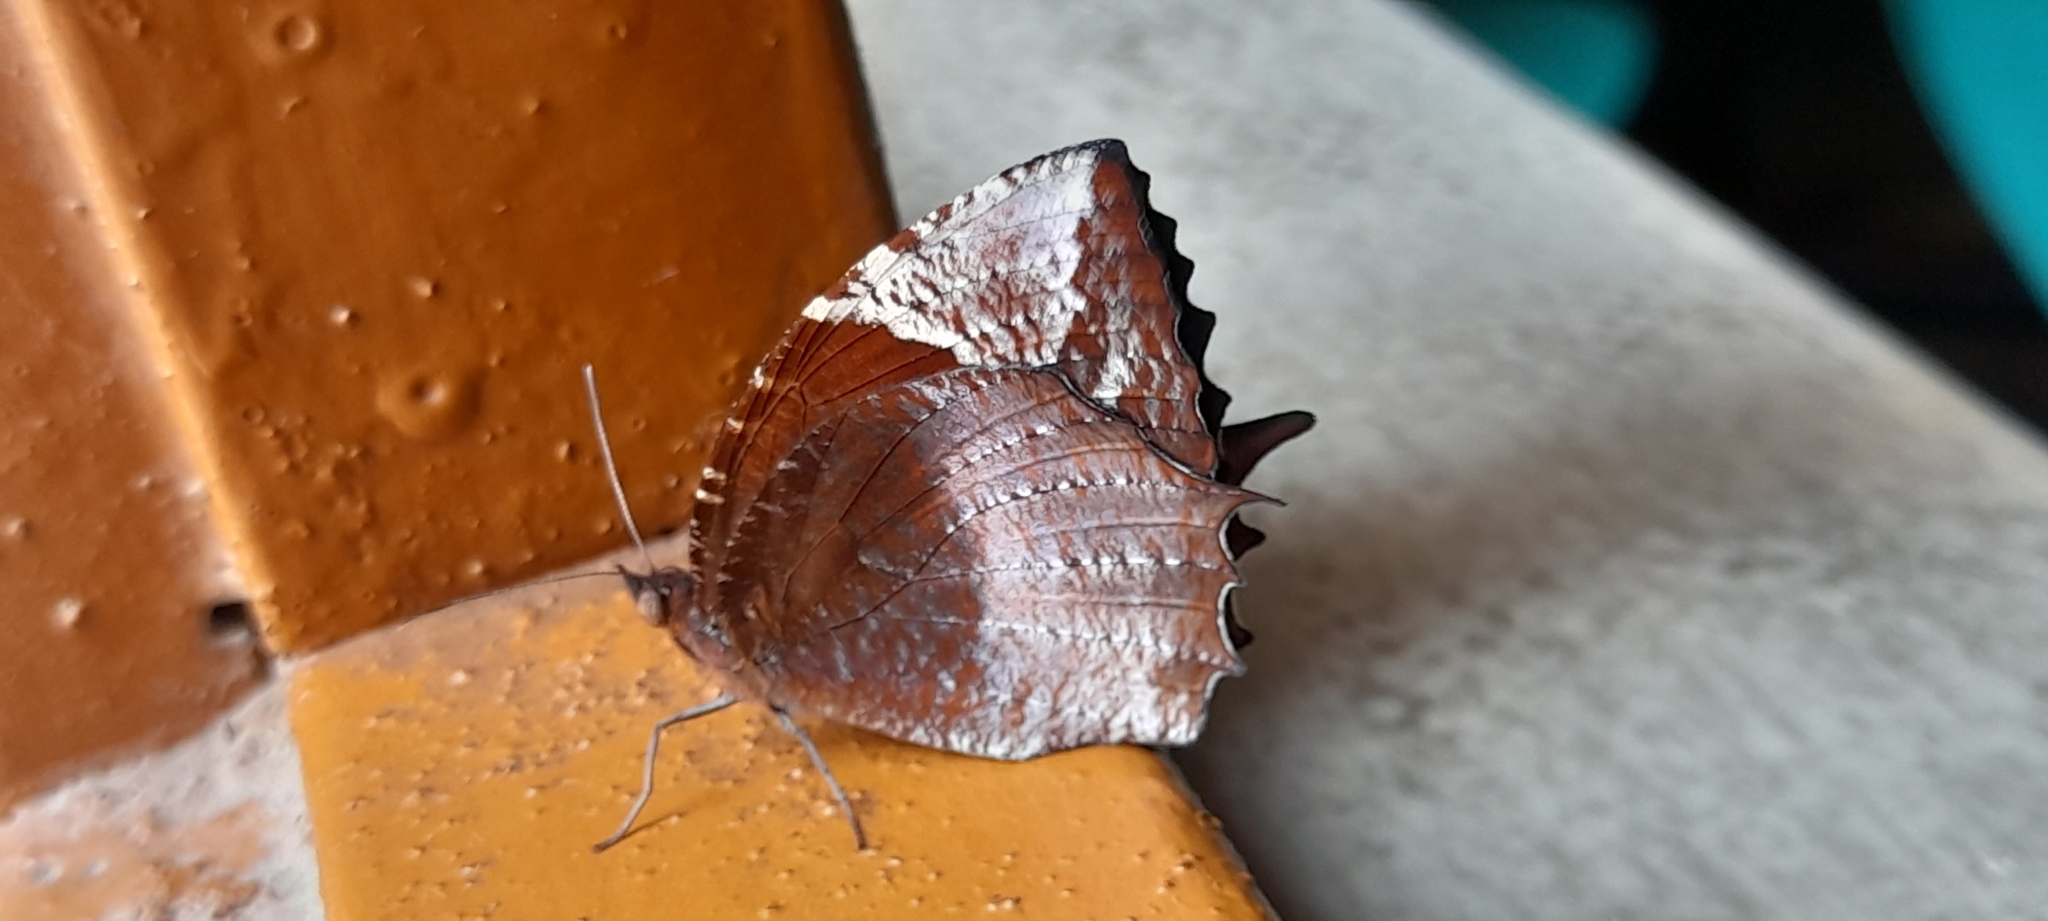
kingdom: Animalia
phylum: Arthropoda
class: Insecta
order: Lepidoptera
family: Nymphalidae
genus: Elymnias
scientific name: Elymnias caudata
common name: Tailed palmfly
